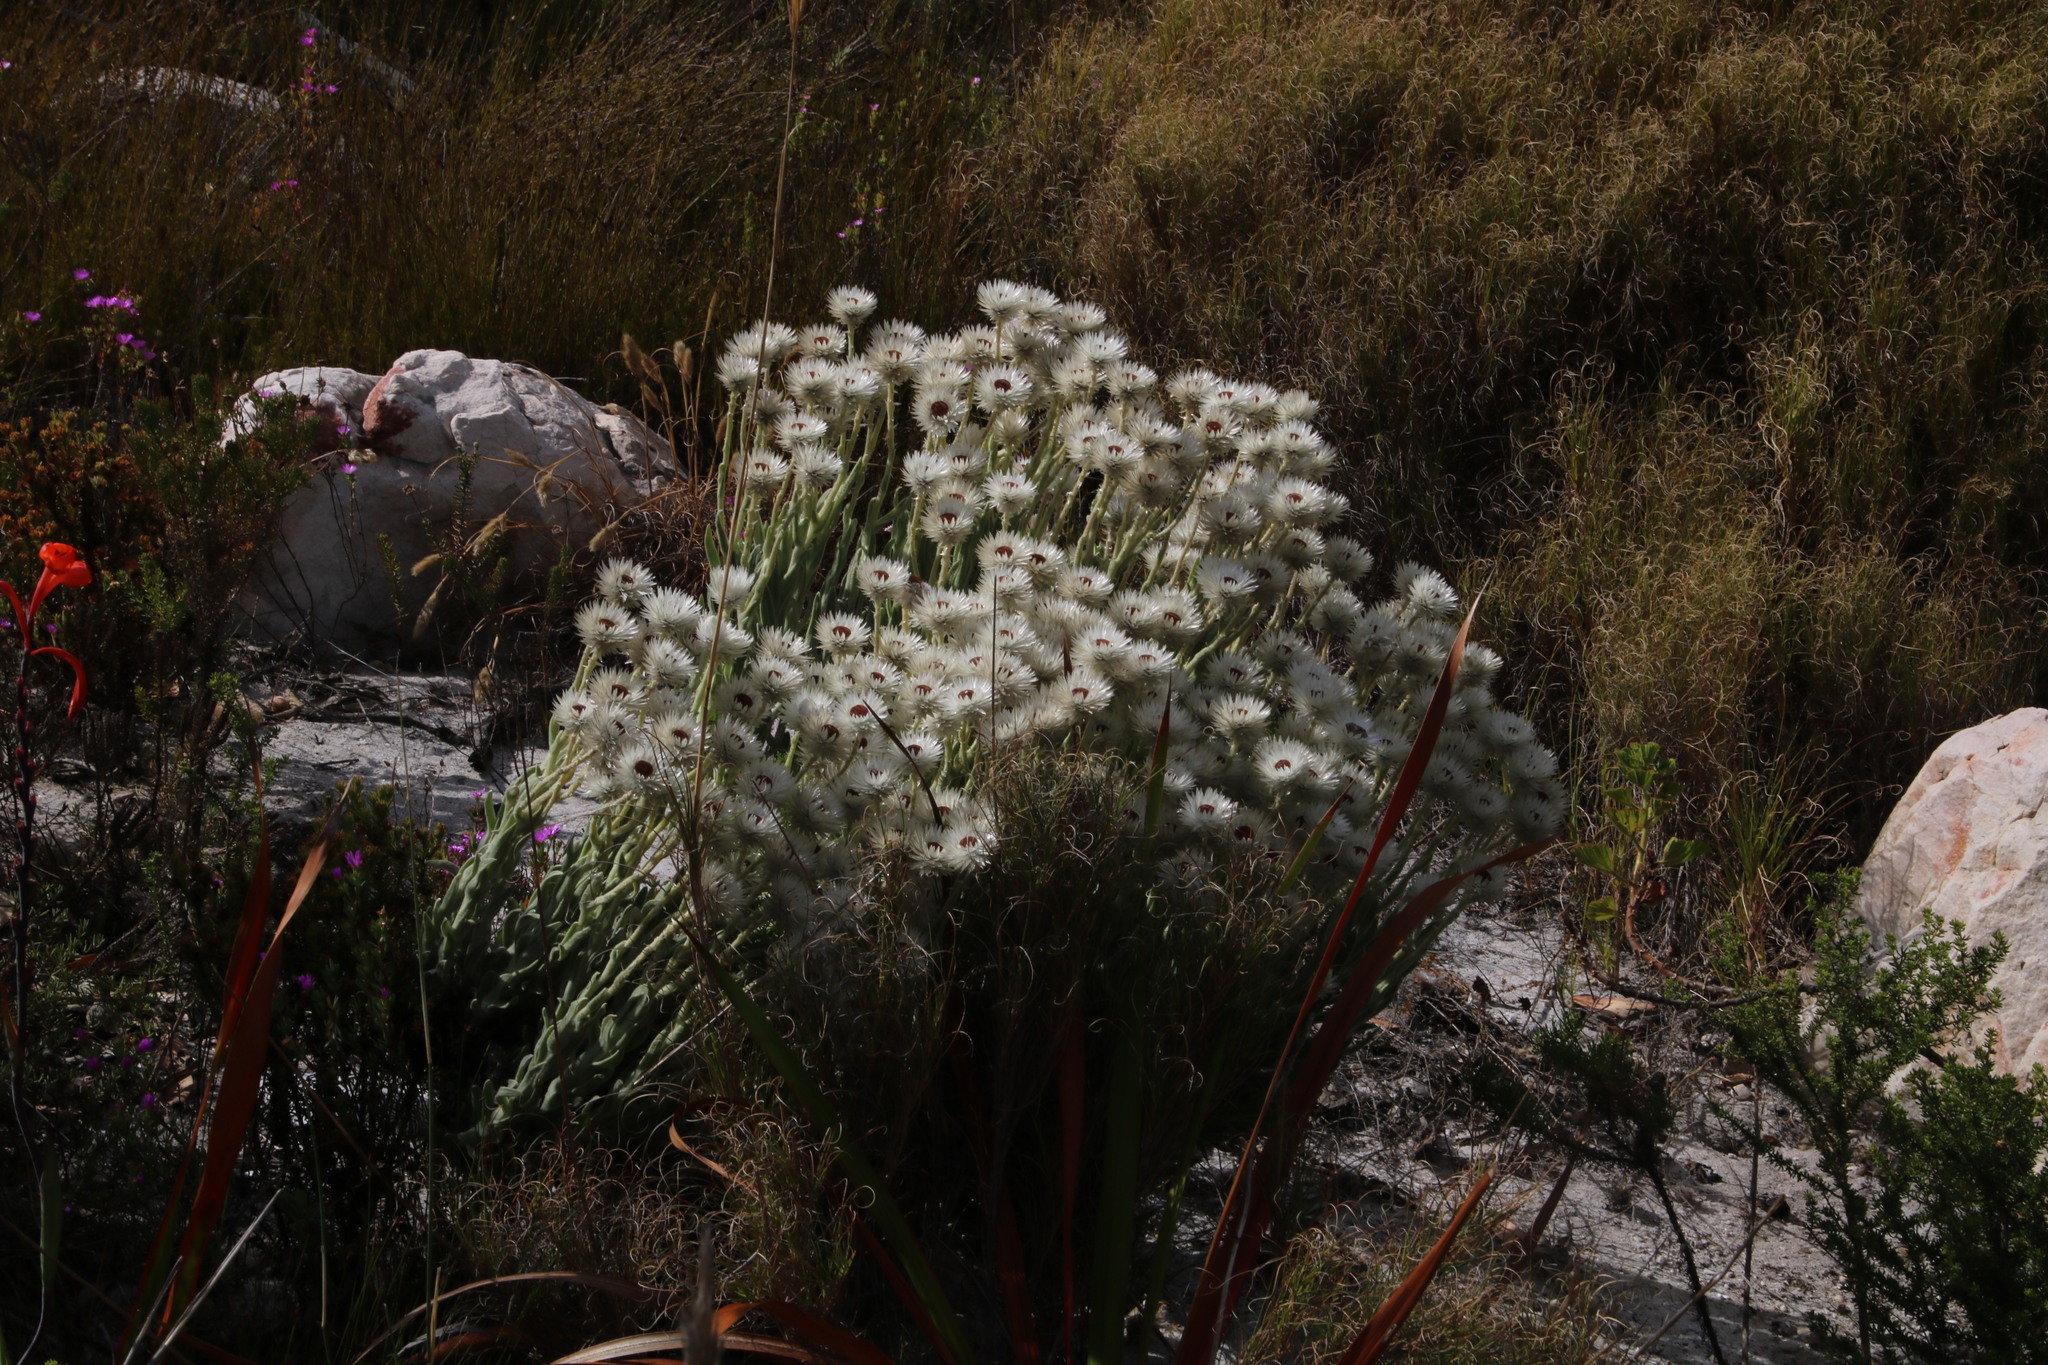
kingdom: Plantae
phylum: Tracheophyta
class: Magnoliopsida
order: Asterales
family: Asteraceae
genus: Syncarpha
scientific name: Syncarpha vestita
